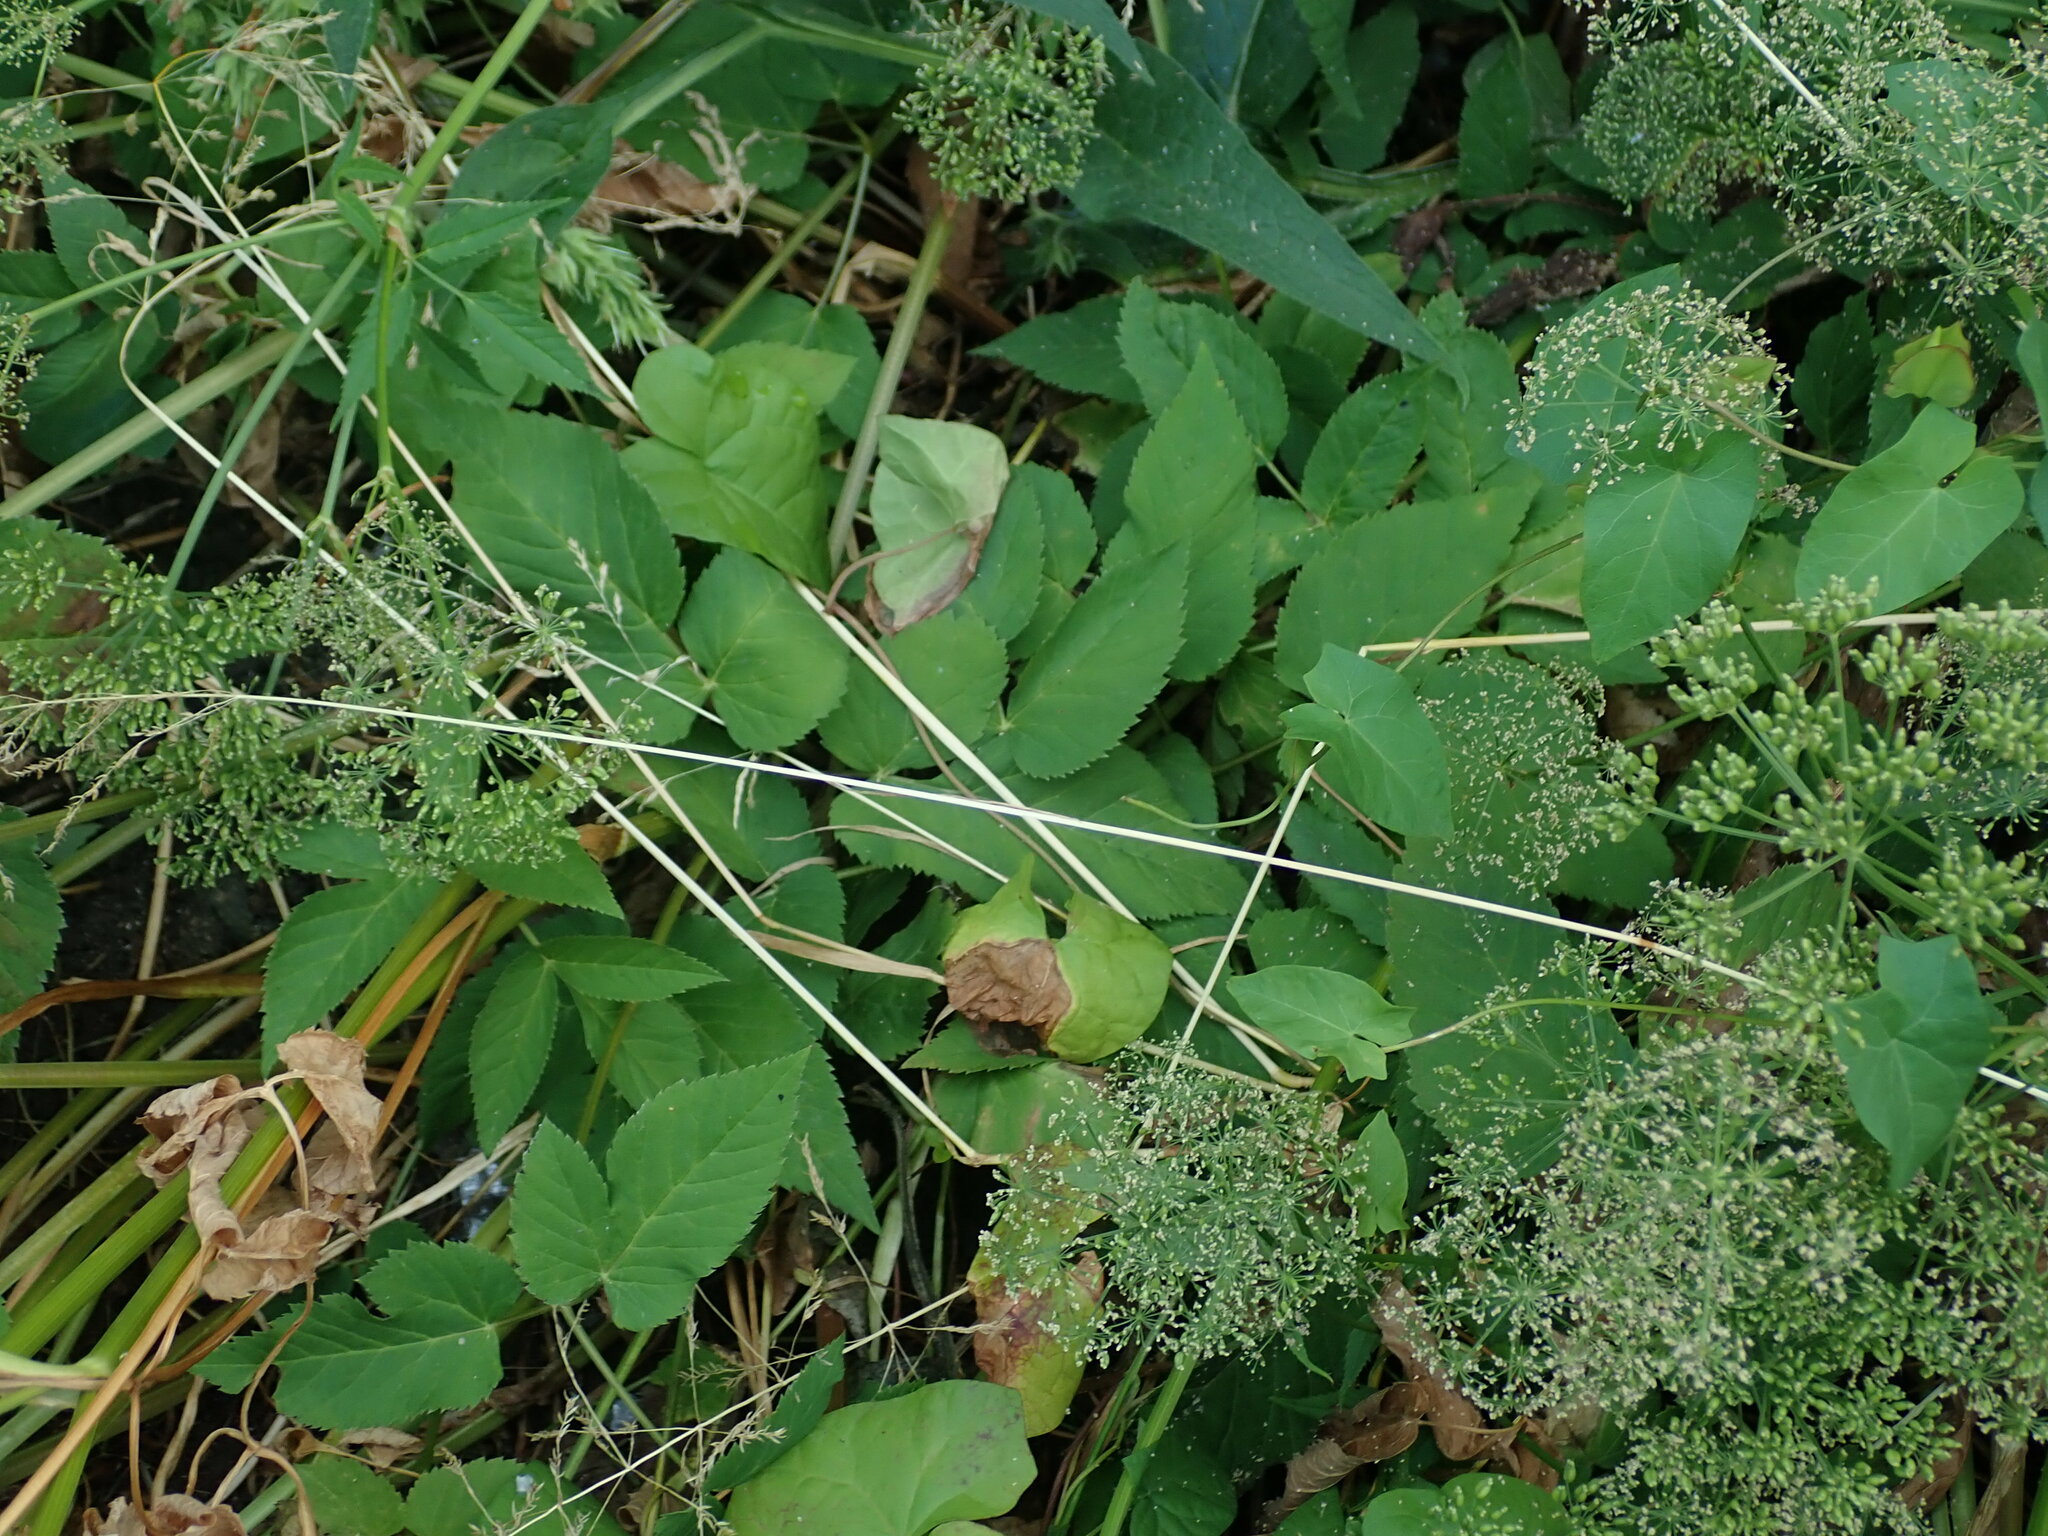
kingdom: Plantae
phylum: Tracheophyta
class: Magnoliopsida
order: Apiales
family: Apiaceae
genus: Aegopodium
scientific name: Aegopodium podagraria
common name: Ground-elder
